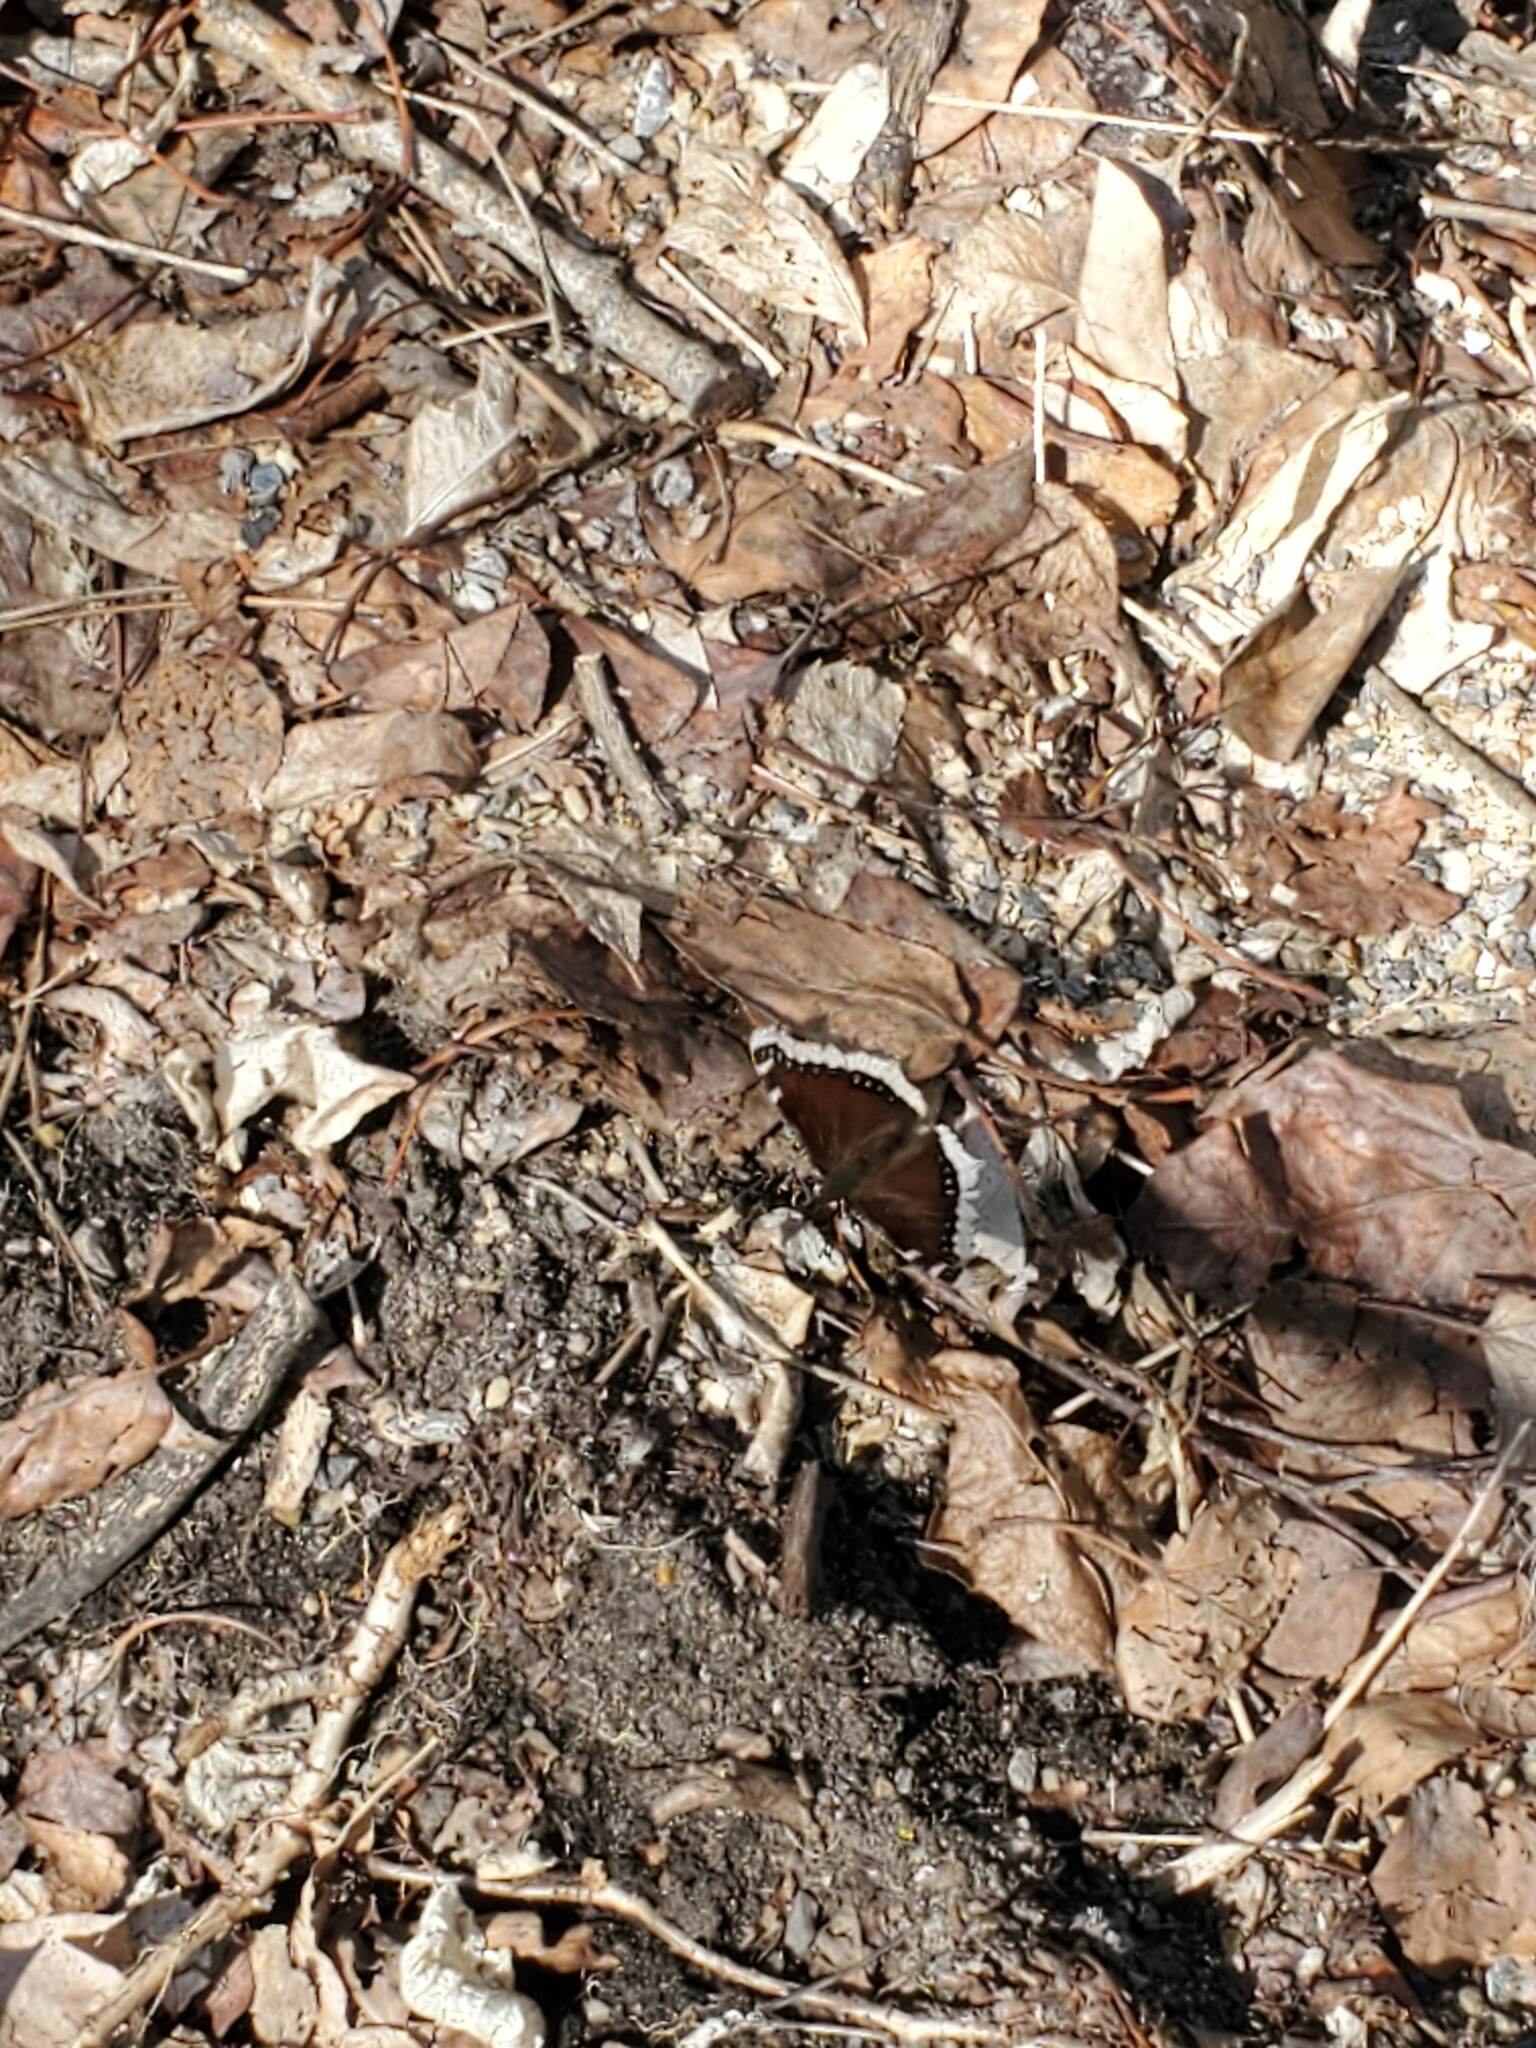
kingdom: Animalia
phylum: Arthropoda
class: Insecta
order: Lepidoptera
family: Nymphalidae
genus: Nymphalis
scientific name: Nymphalis antiopa
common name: Camberwell beauty
